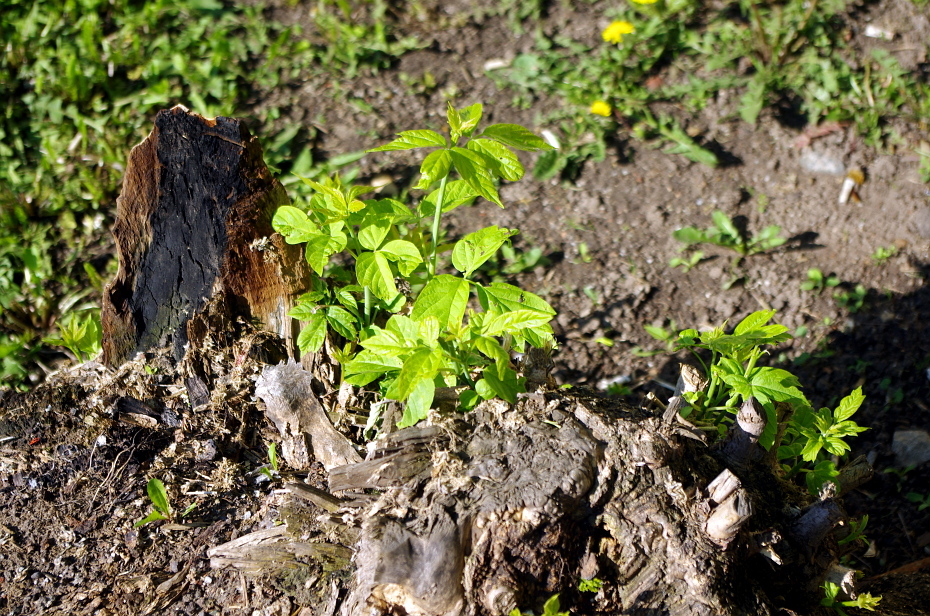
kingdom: Plantae
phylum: Tracheophyta
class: Magnoliopsida
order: Sapindales
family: Sapindaceae
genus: Acer
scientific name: Acer negundo
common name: Ashleaf maple
